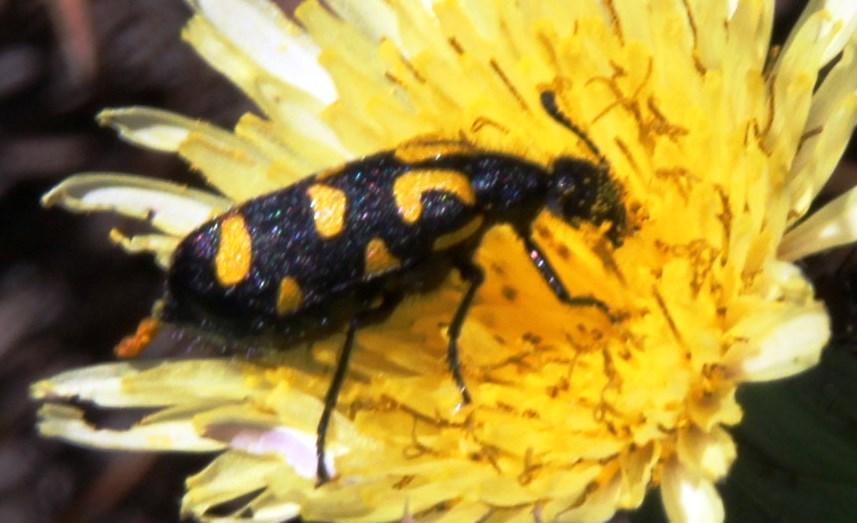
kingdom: Animalia
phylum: Arthropoda
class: Insecta
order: Coleoptera
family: Meloidae
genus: Ceroctis
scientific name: Ceroctis capensis
